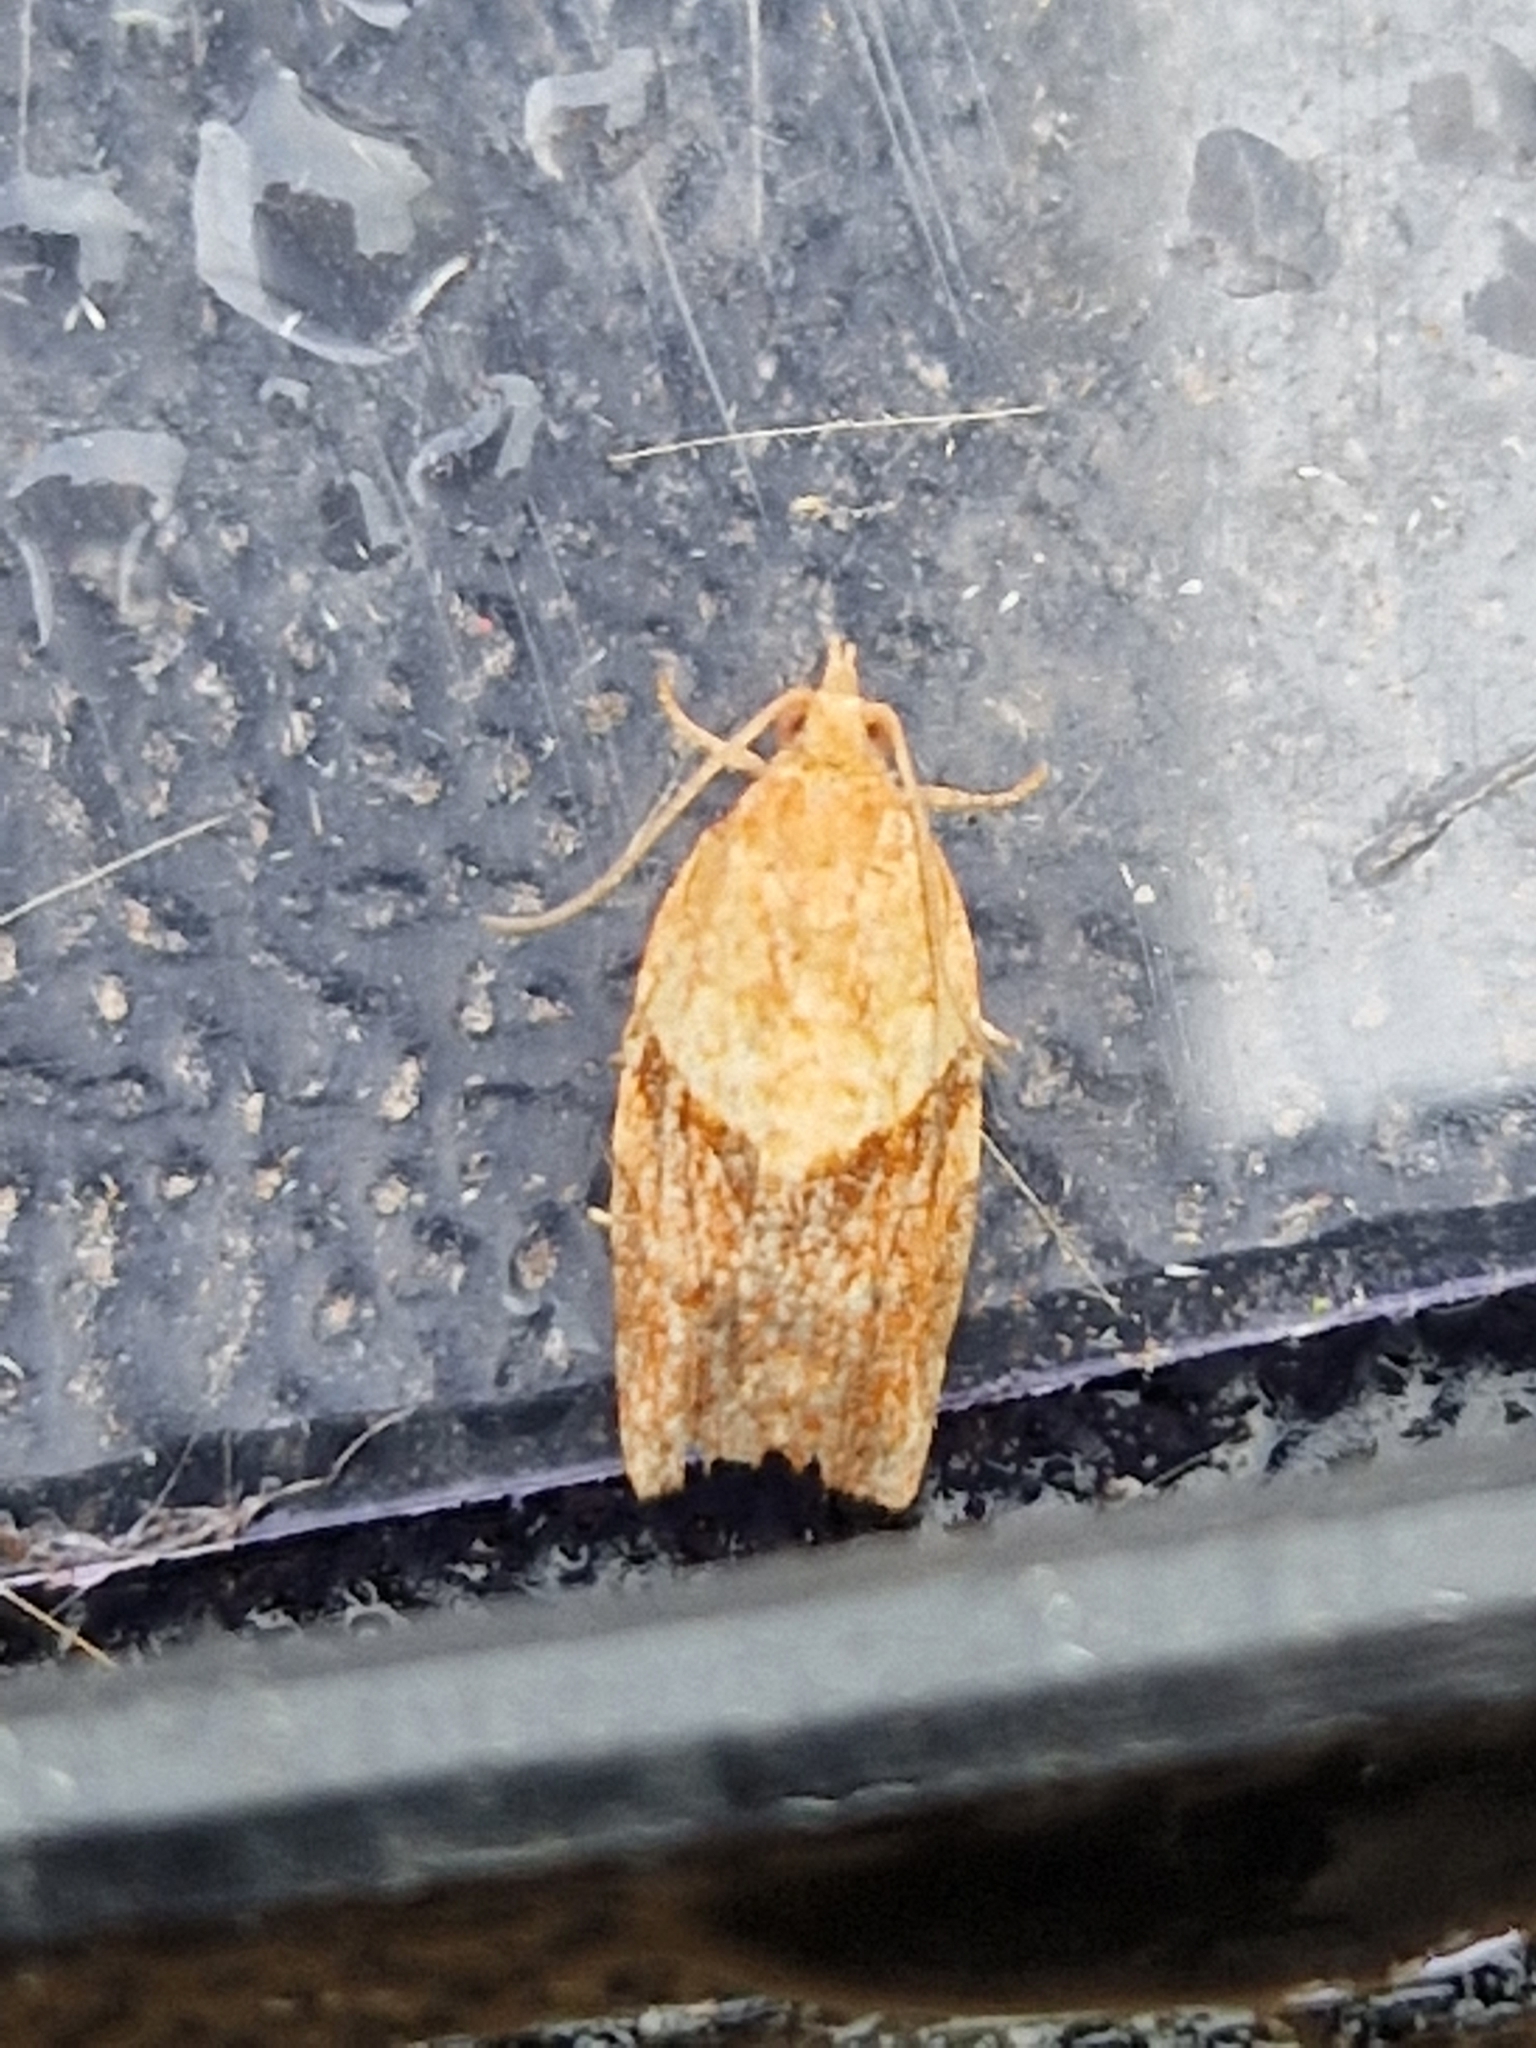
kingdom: Animalia
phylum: Arthropoda
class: Insecta
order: Lepidoptera
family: Tortricidae
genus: Epiphyas
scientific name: Epiphyas postvittana
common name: Light brown apple moth
